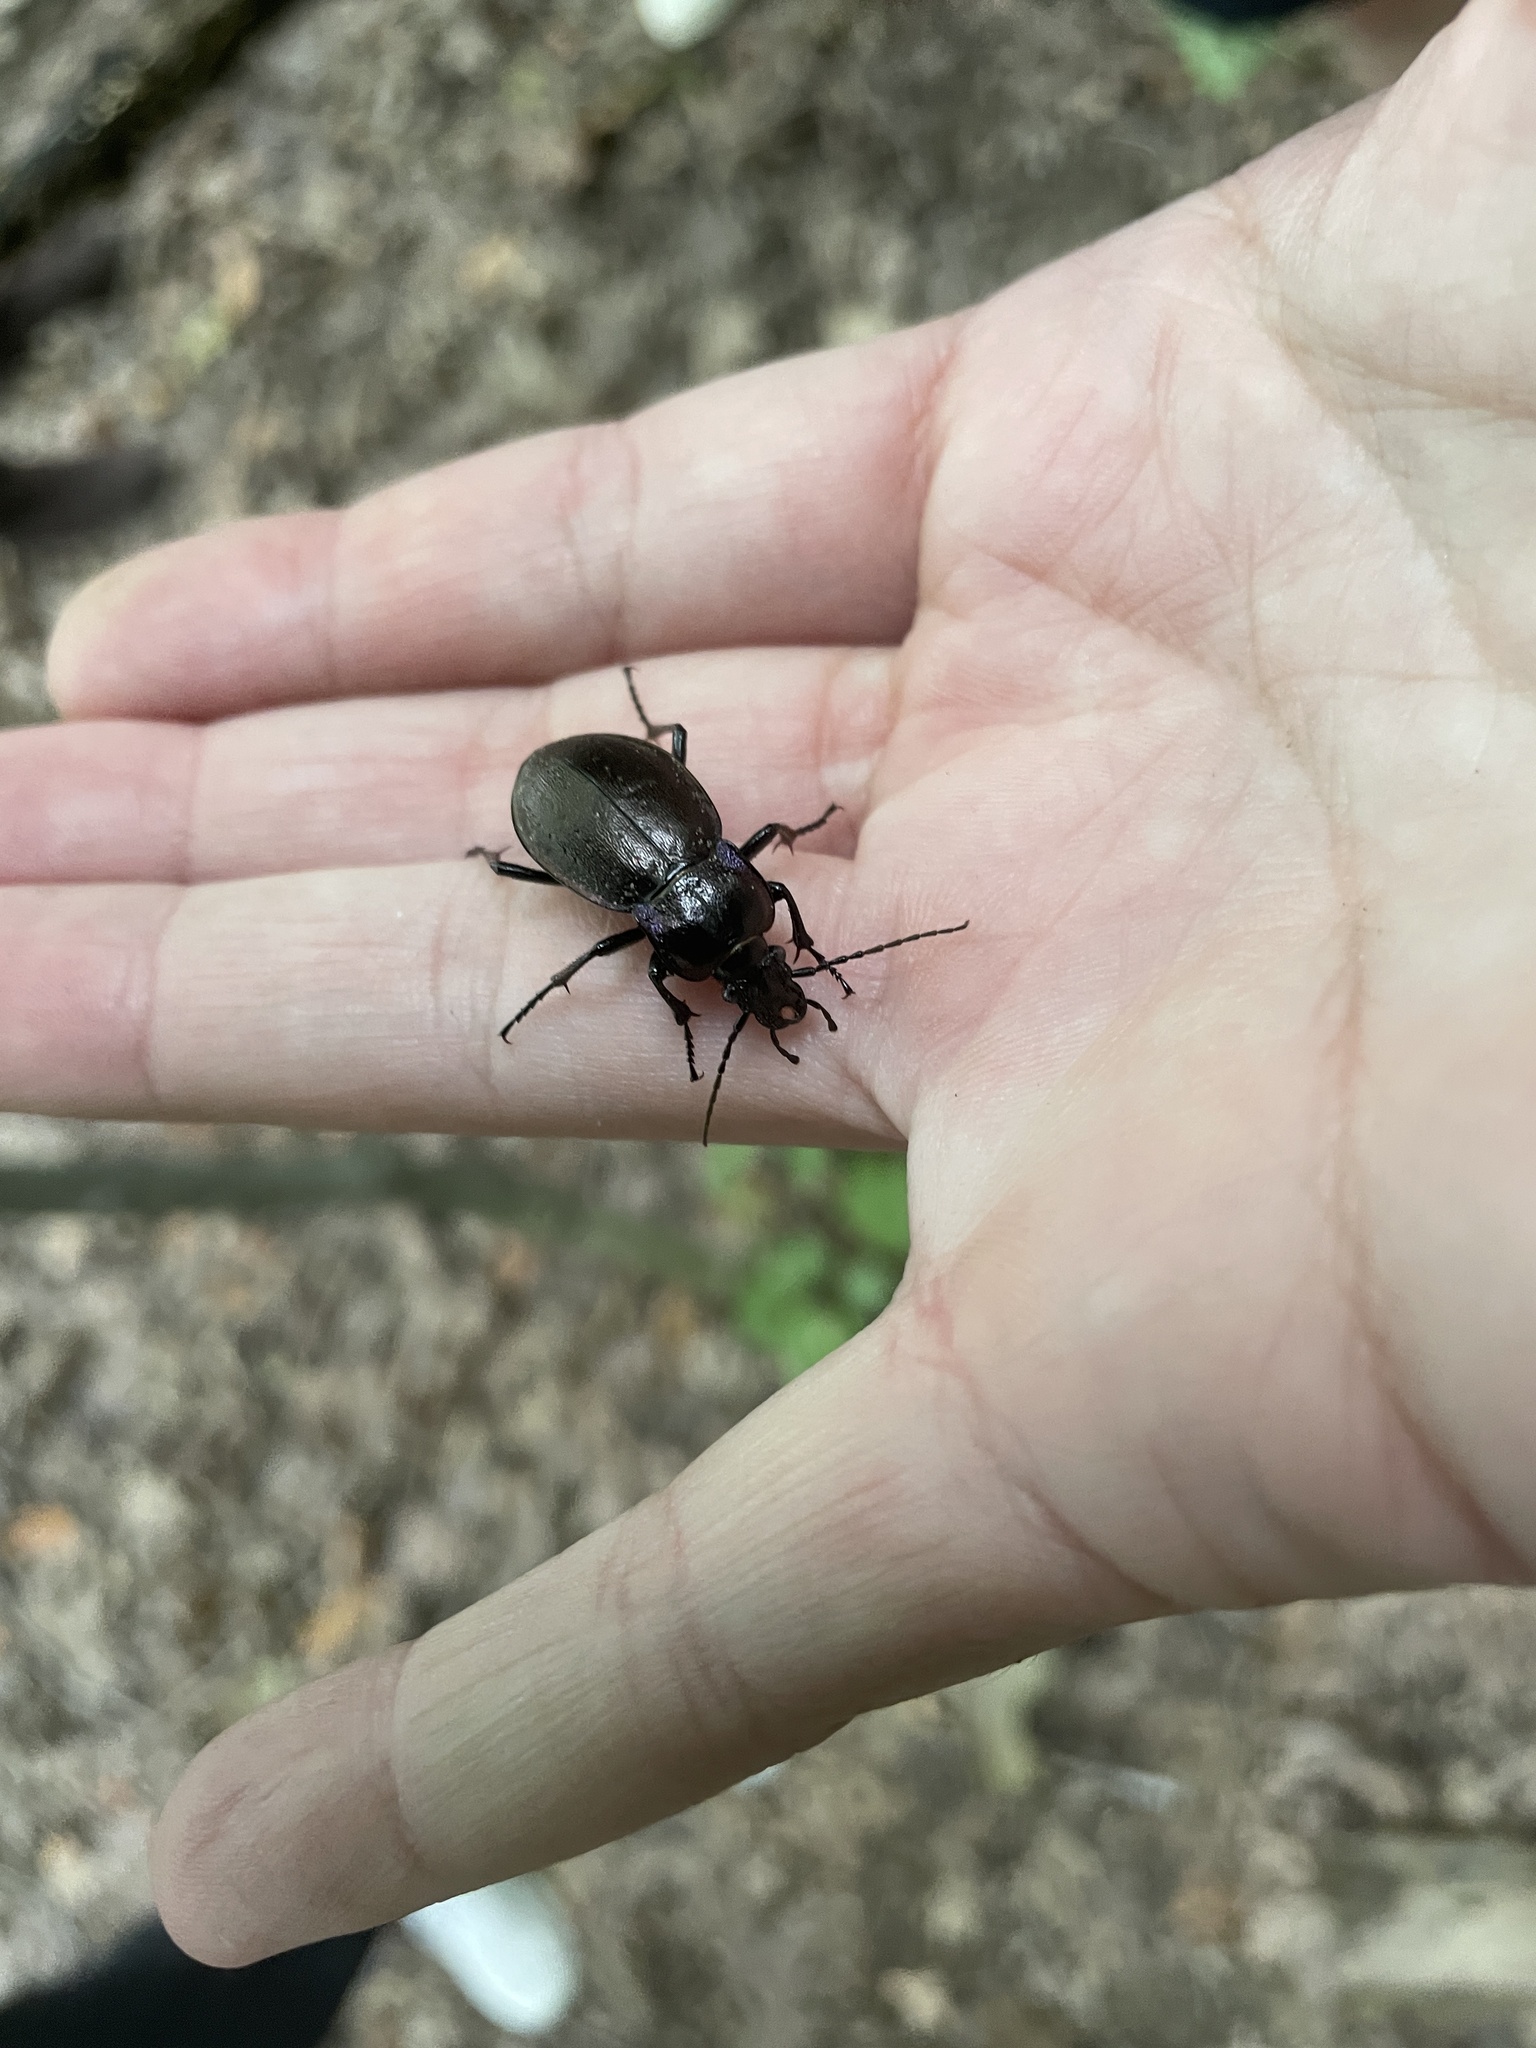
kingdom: Animalia
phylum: Arthropoda
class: Insecta
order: Coleoptera
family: Carabidae
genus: Carabus
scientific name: Carabus nemoralis
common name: European ground beetle
